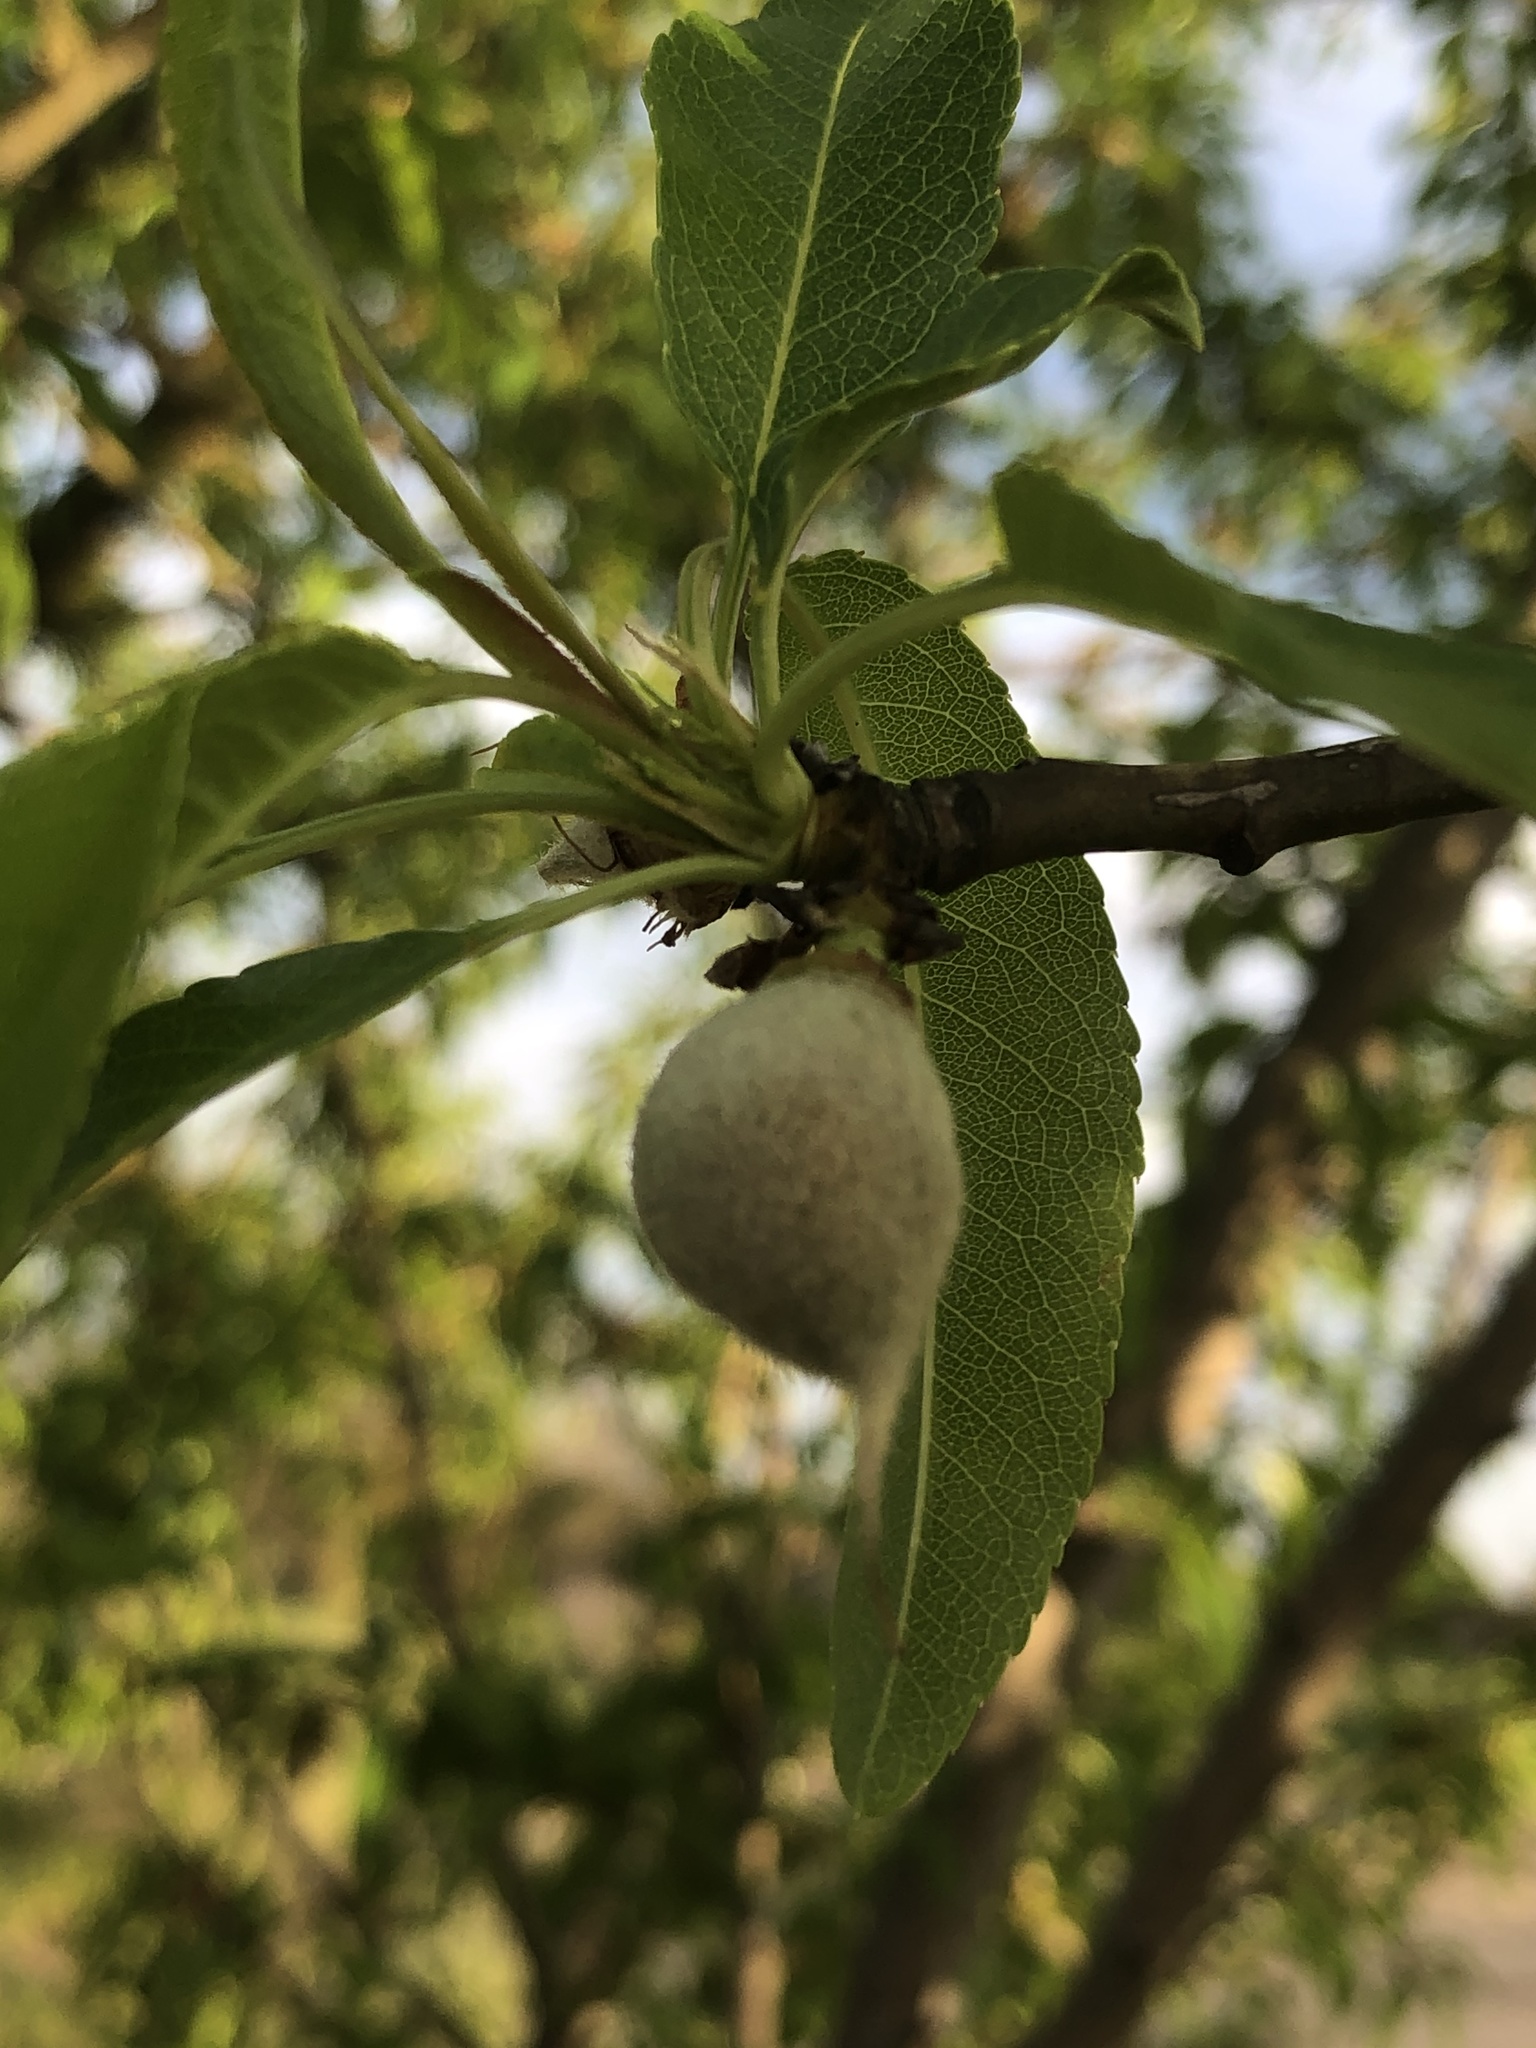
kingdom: Plantae
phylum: Tracheophyta
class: Magnoliopsida
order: Rosales
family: Rosaceae
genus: Prunus
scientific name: Prunus amygdalus
